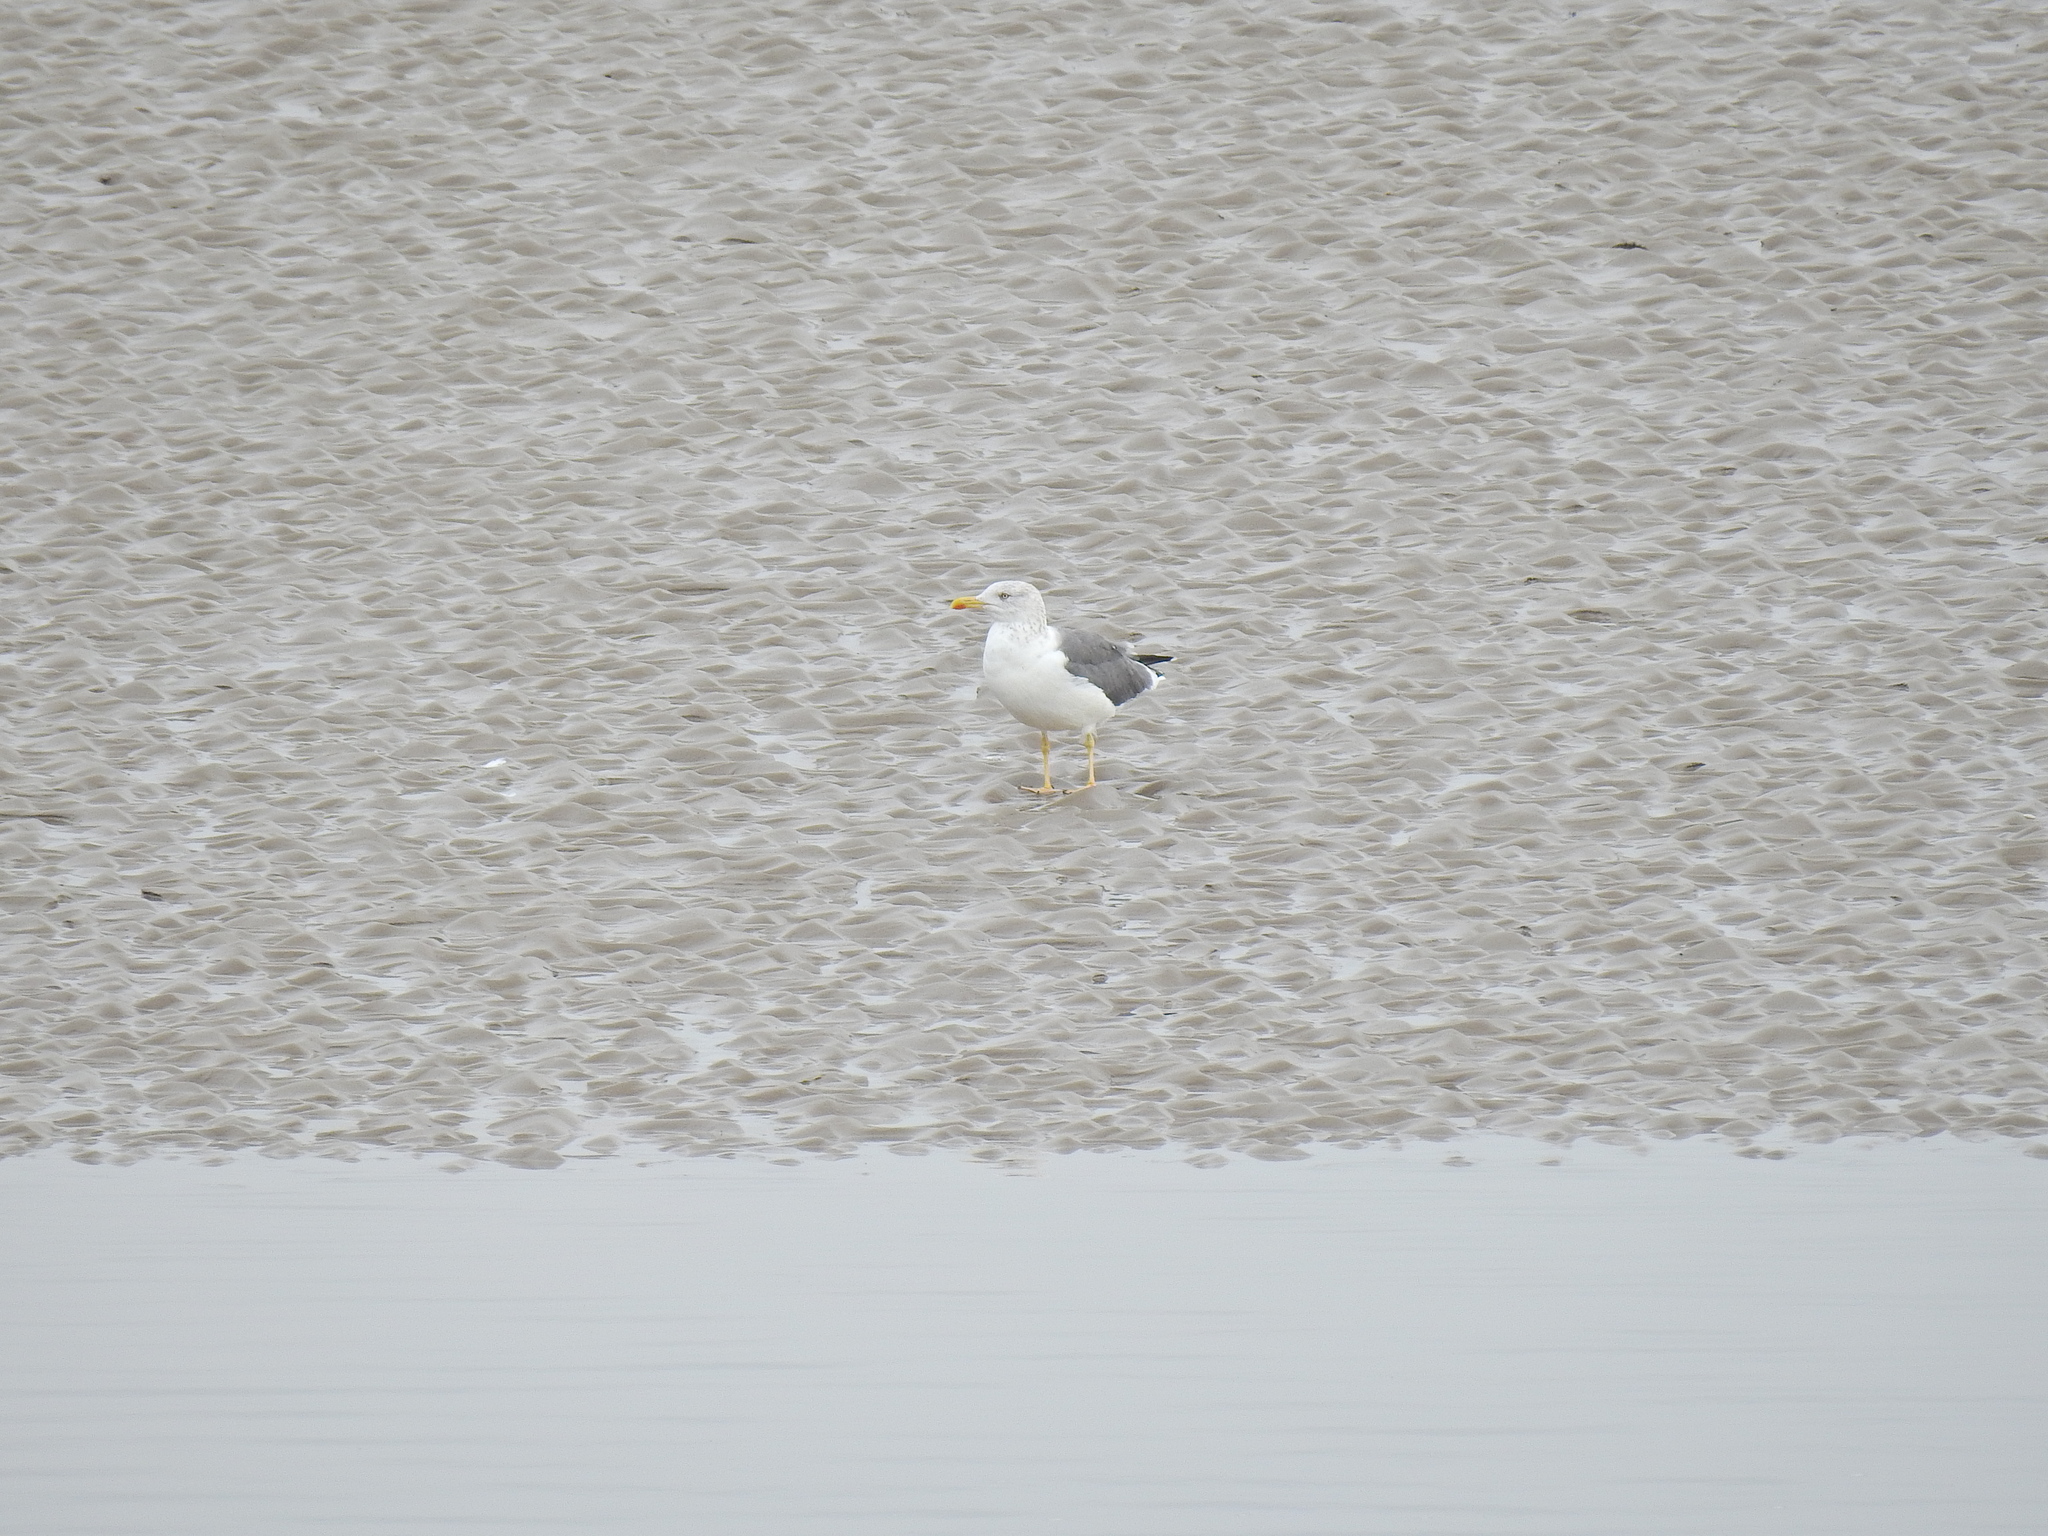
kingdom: Animalia
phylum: Chordata
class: Aves
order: Charadriiformes
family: Laridae
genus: Larus
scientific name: Larus fuscus
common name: Lesser black-backed gull
